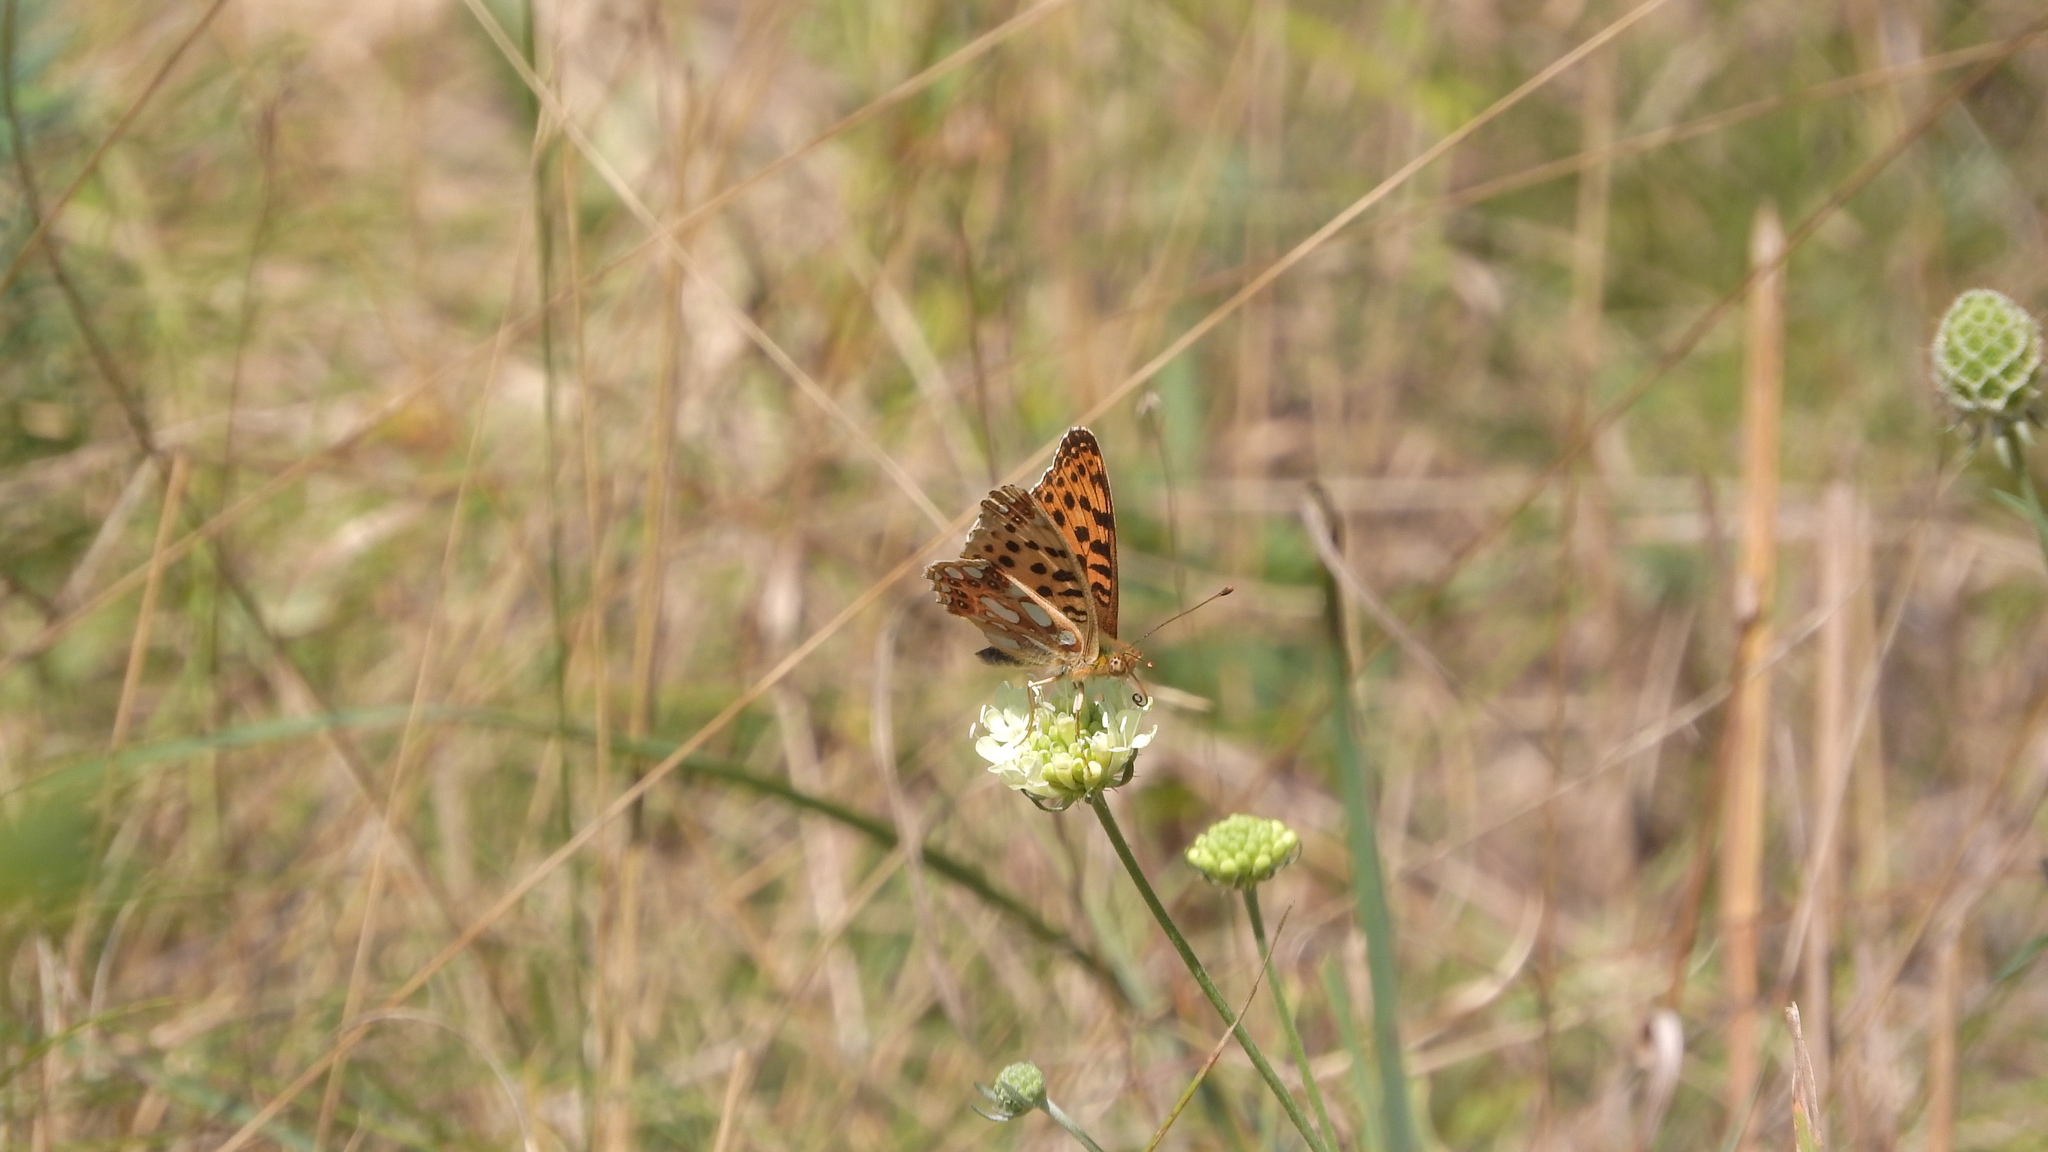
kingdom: Animalia
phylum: Arthropoda
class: Insecta
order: Lepidoptera
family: Nymphalidae
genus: Issoria
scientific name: Issoria lathonia
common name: Queen of spain fritillary
